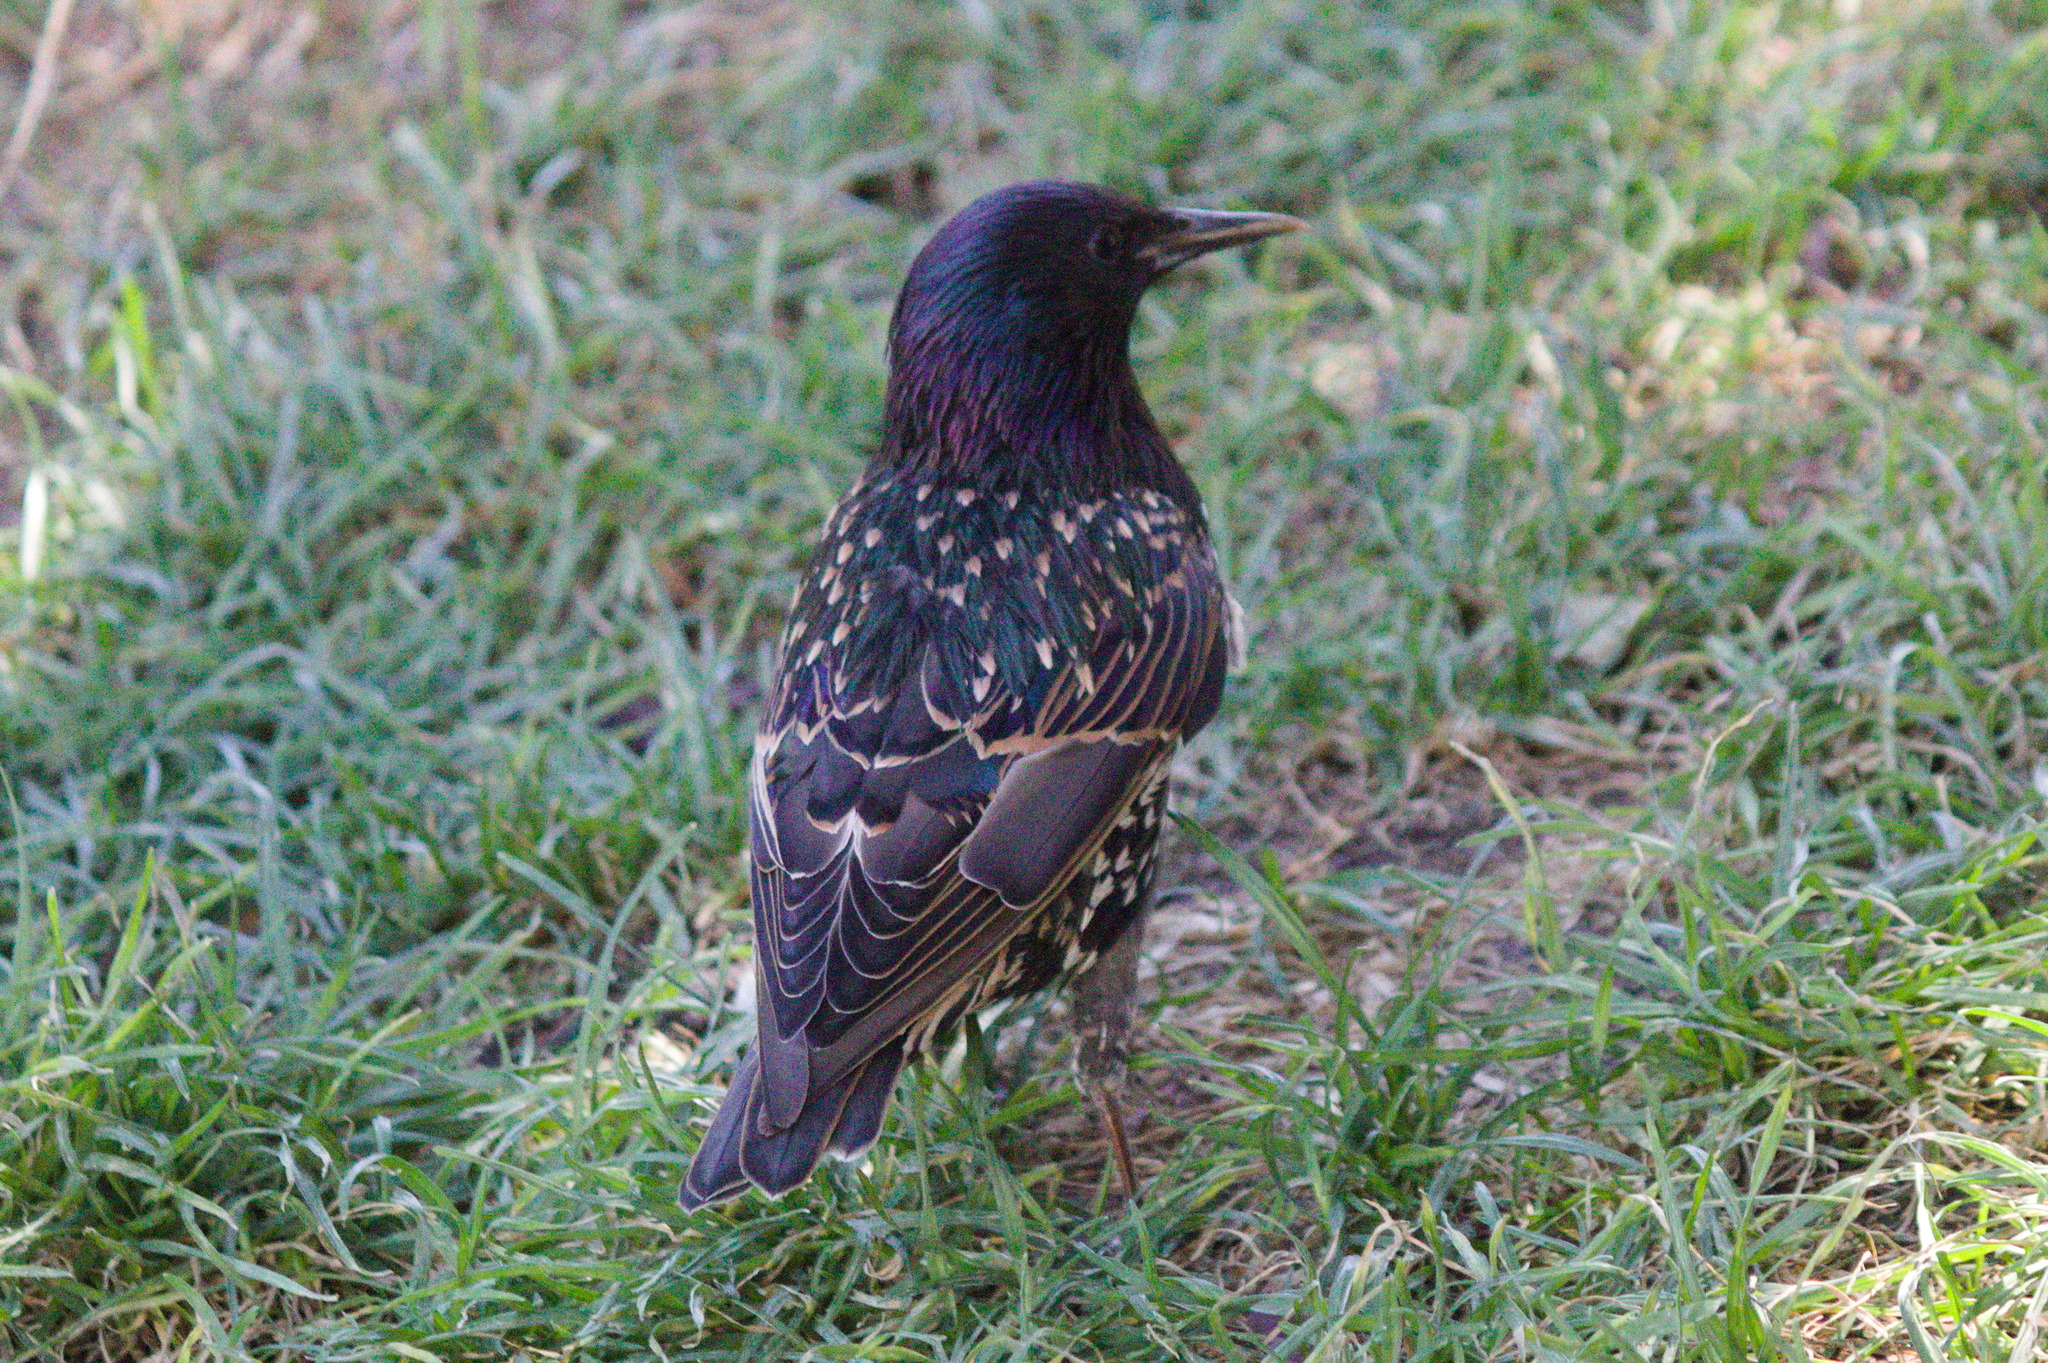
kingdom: Animalia
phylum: Chordata
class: Aves
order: Passeriformes
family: Sturnidae
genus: Sturnus
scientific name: Sturnus vulgaris
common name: Common starling
